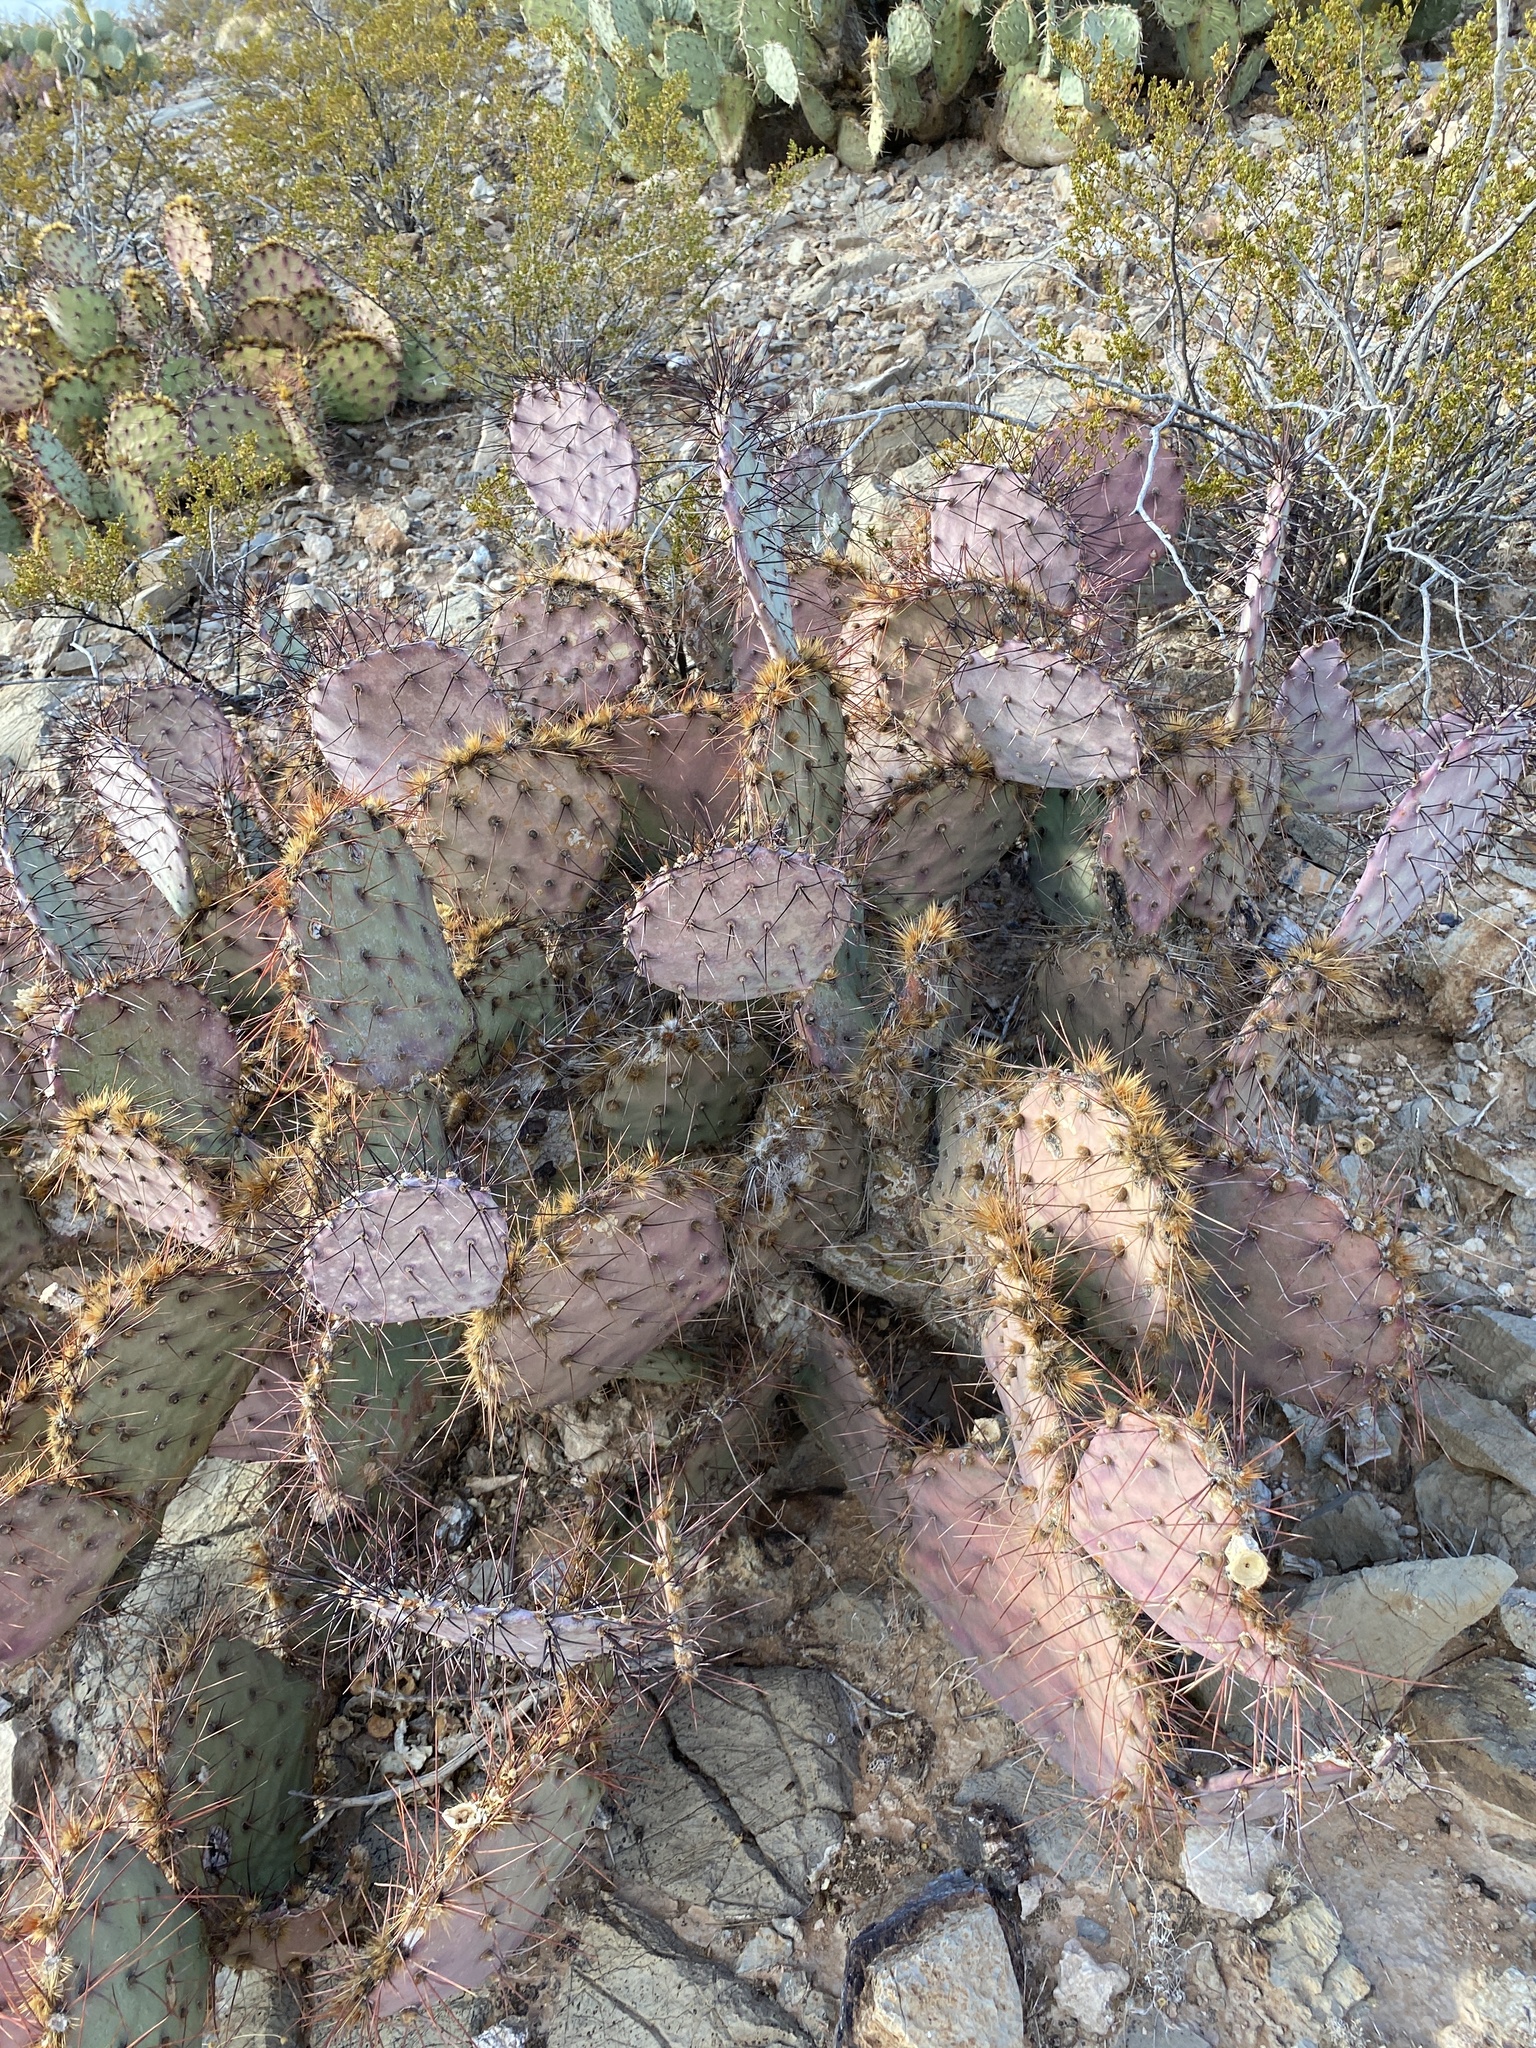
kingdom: Plantae
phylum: Tracheophyta
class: Magnoliopsida
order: Caryophyllales
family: Cactaceae
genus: Opuntia
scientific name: Opuntia macrocentra
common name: Purple prickly-pear
